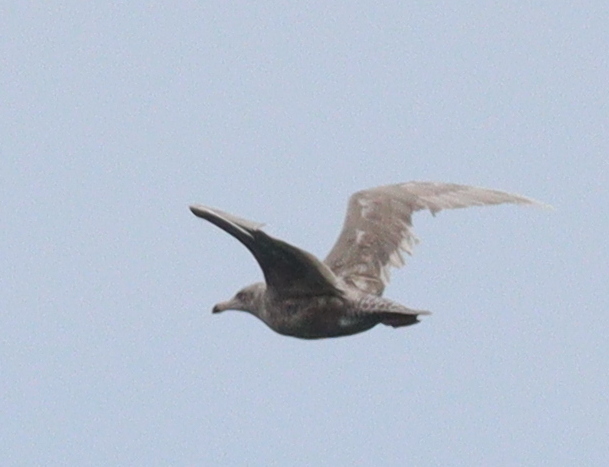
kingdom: Animalia
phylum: Chordata
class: Aves
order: Charadriiformes
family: Laridae
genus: Larus
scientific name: Larus hyperboreus
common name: Glaucous gull
